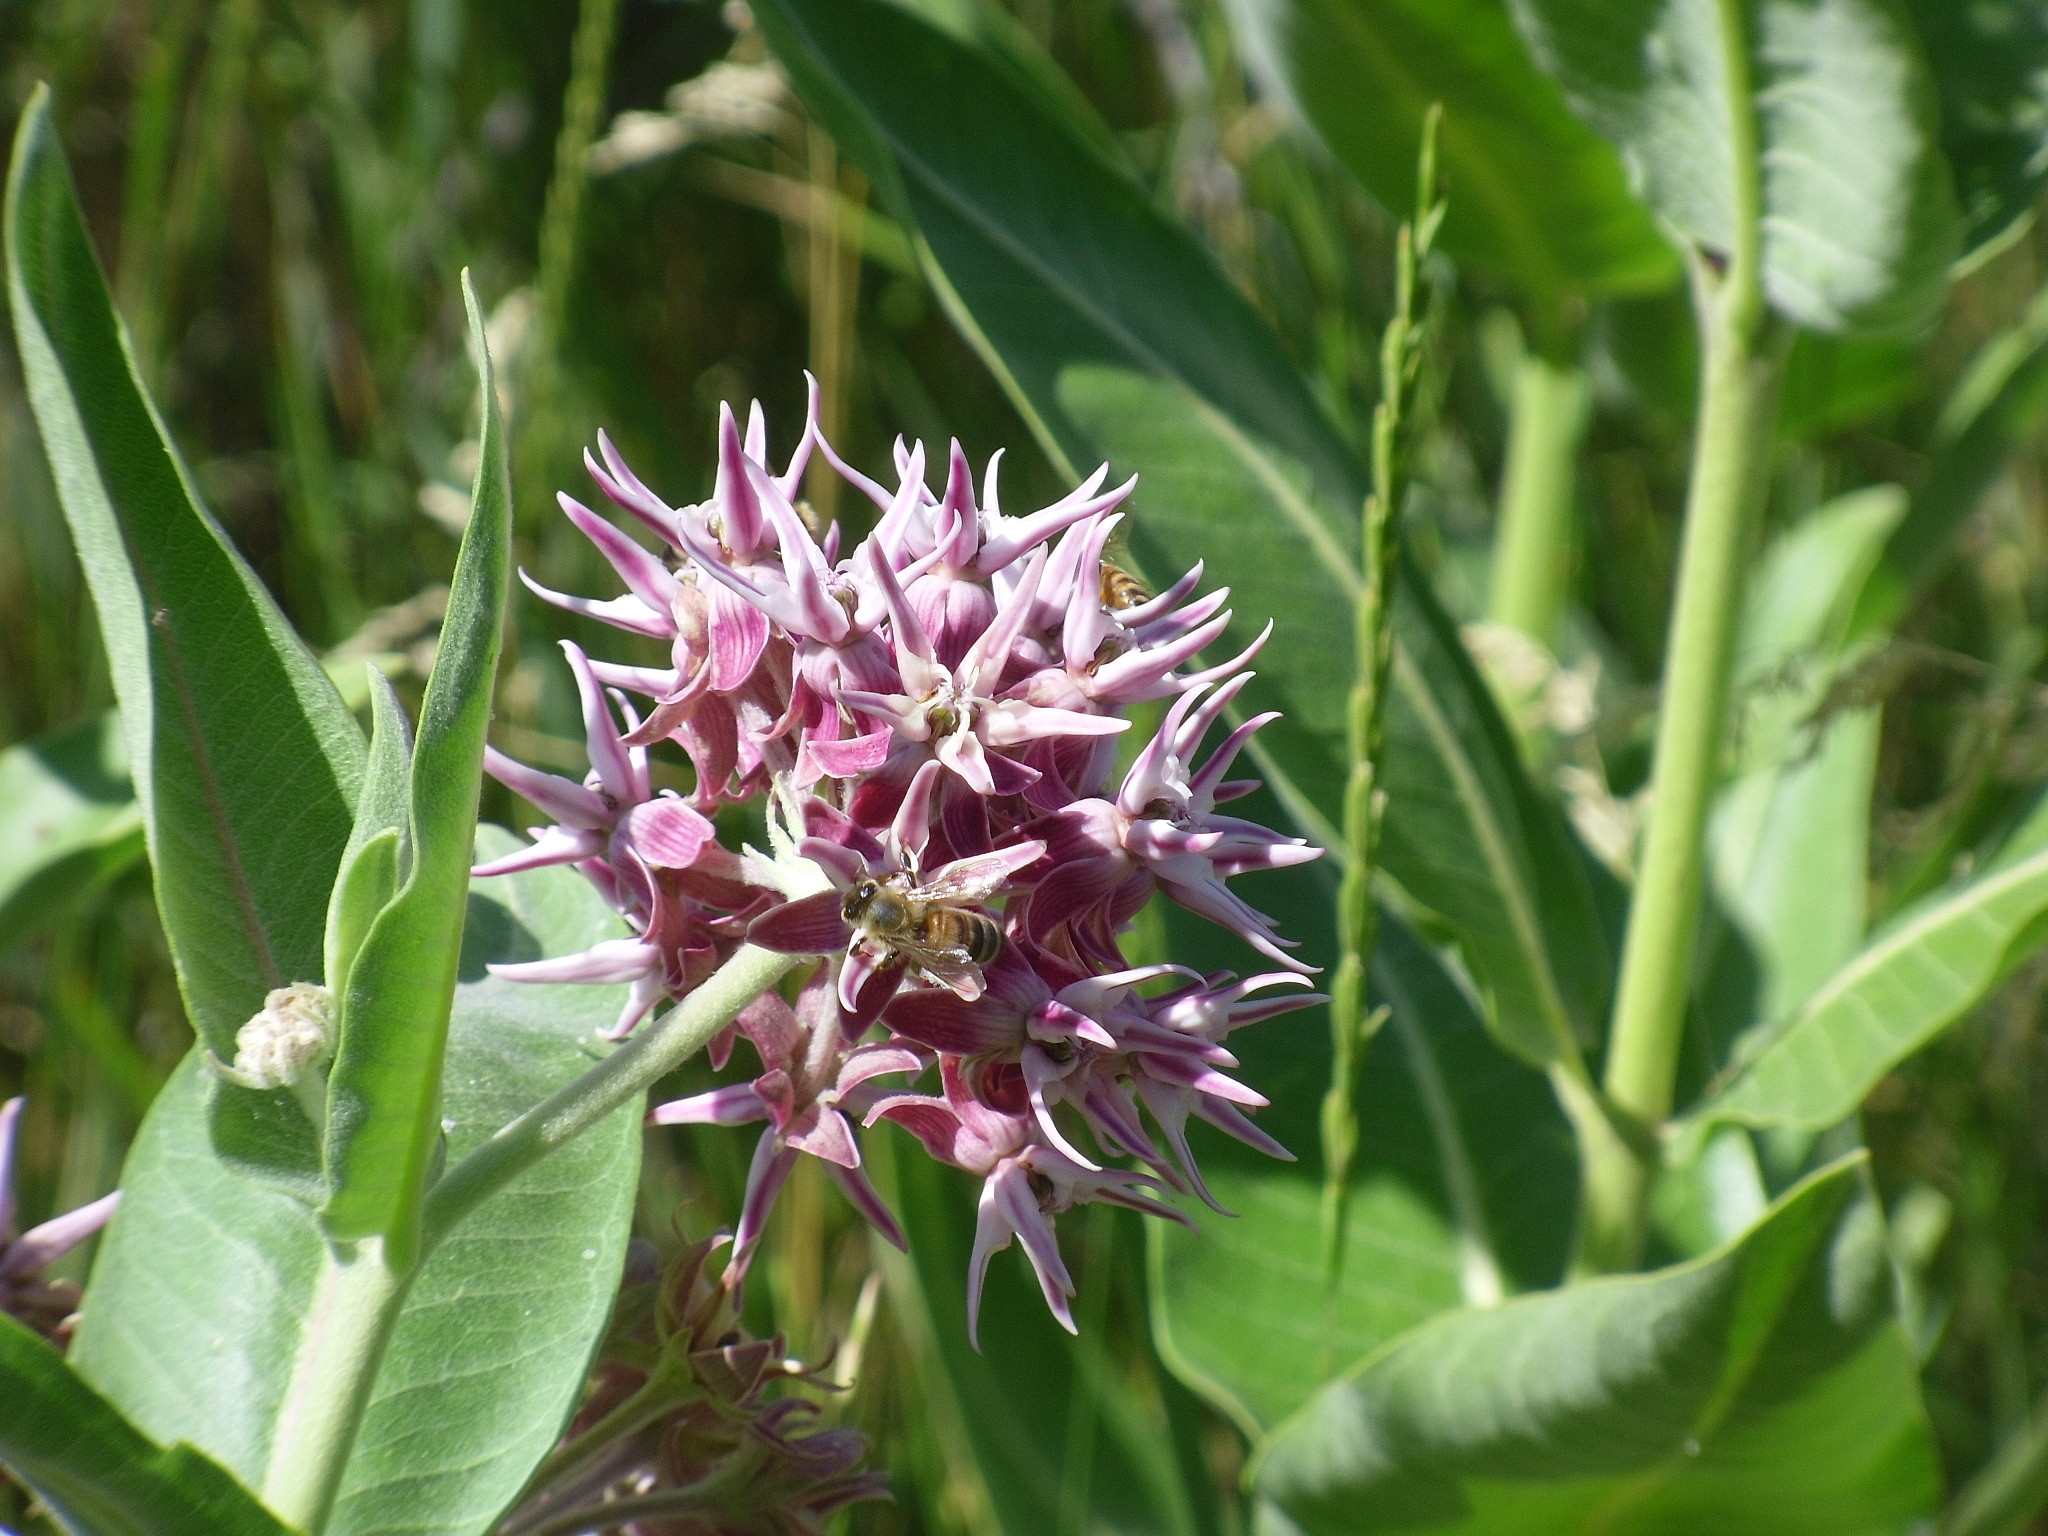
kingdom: Animalia
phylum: Arthropoda
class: Insecta
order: Hymenoptera
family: Apidae
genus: Apis
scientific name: Apis mellifera
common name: Honey bee
